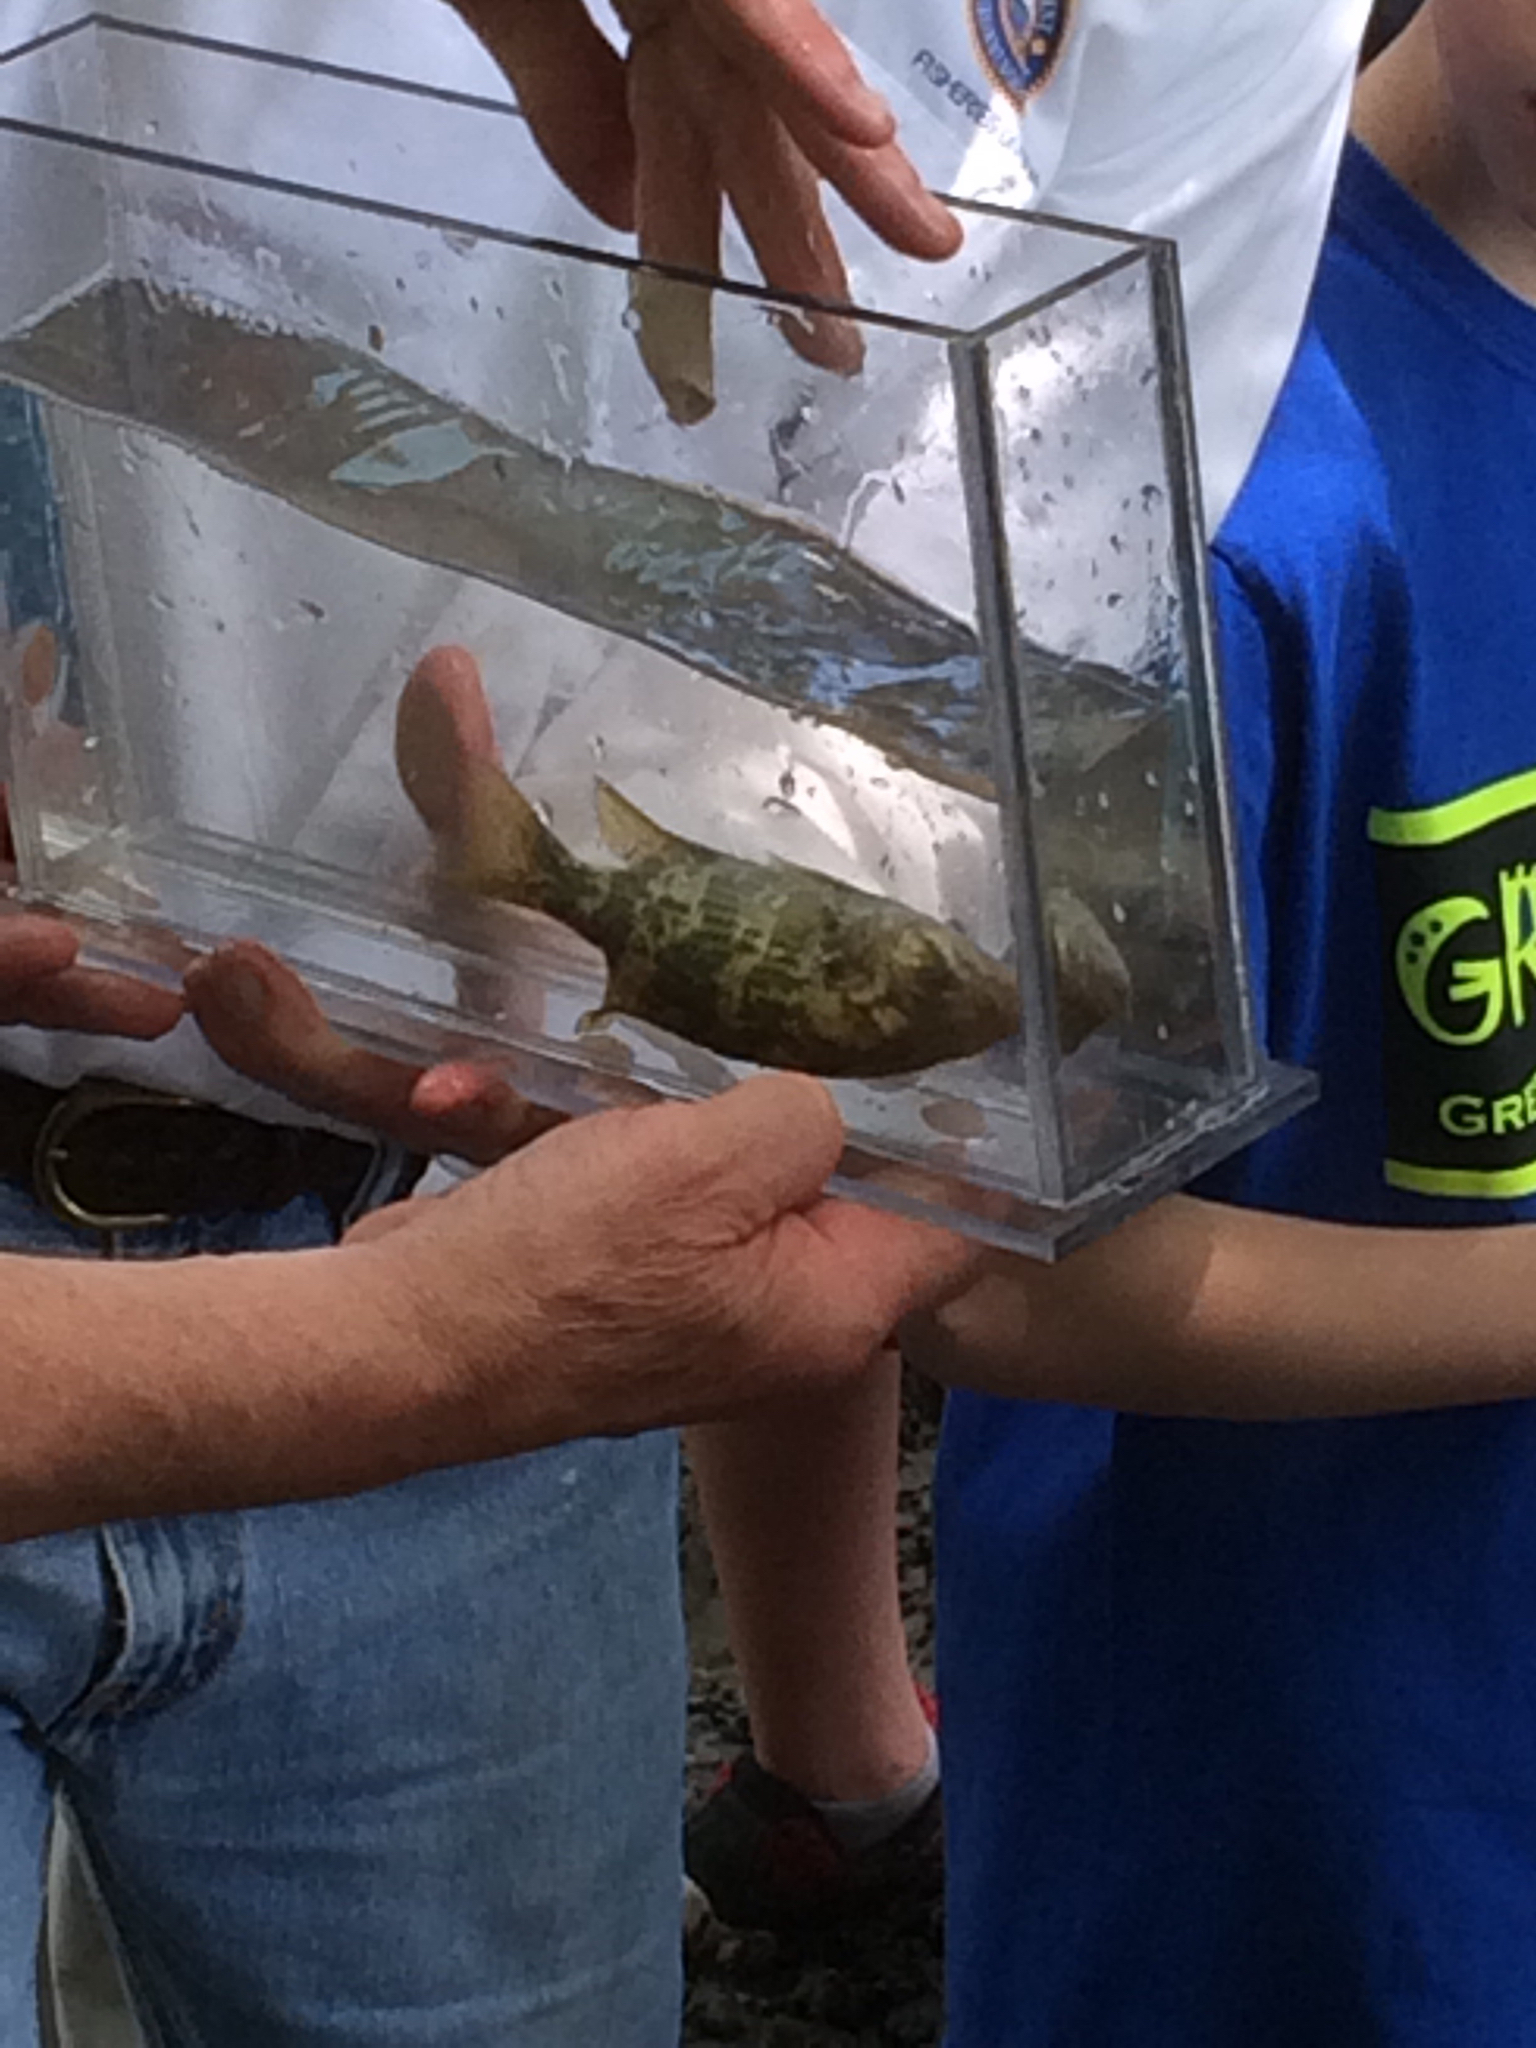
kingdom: Animalia
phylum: Chordata
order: Perciformes
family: Centrarchidae
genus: Ambloplites
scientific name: Ambloplites rupestris
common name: Rock bass
